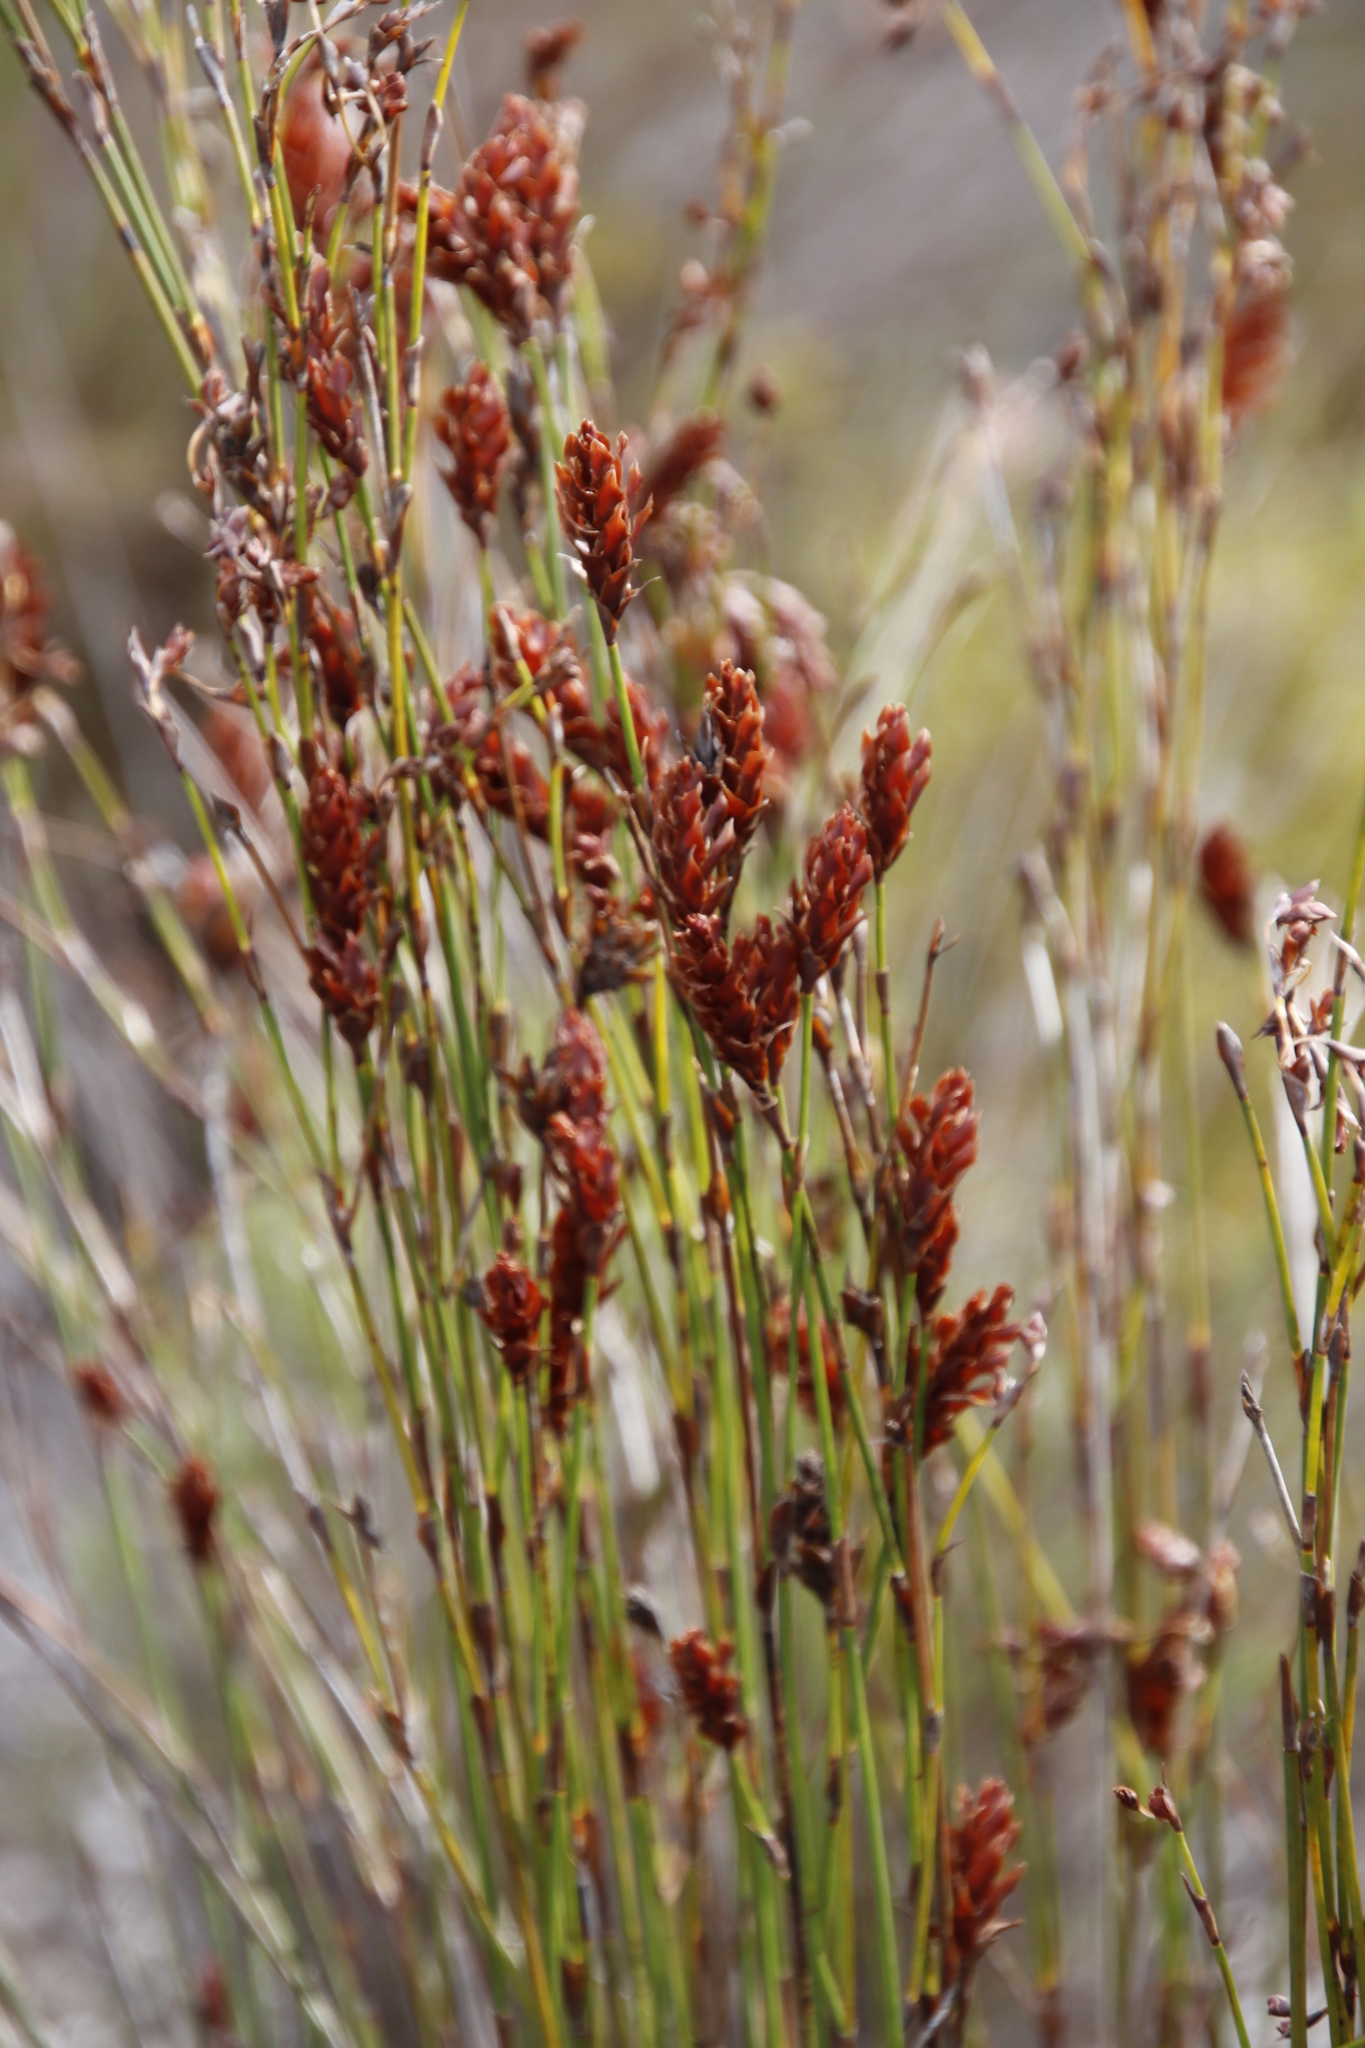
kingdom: Plantae
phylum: Tracheophyta
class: Liliopsida
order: Poales
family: Restionaceae
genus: Restio
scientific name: Restio bifarius
